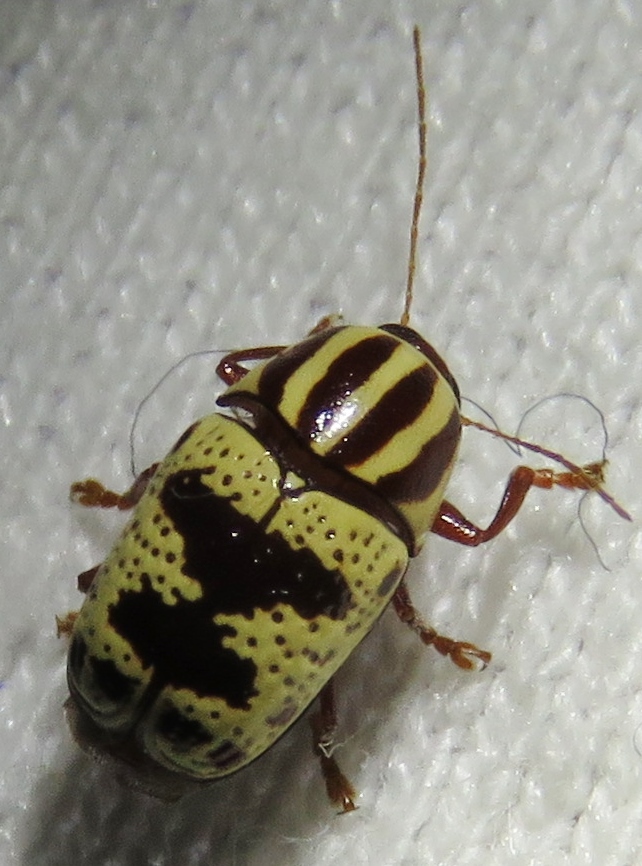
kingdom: Animalia
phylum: Arthropoda
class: Insecta
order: Coleoptera
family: Chrysomelidae
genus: Cryptocephalus
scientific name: Cryptocephalus leucomelas
